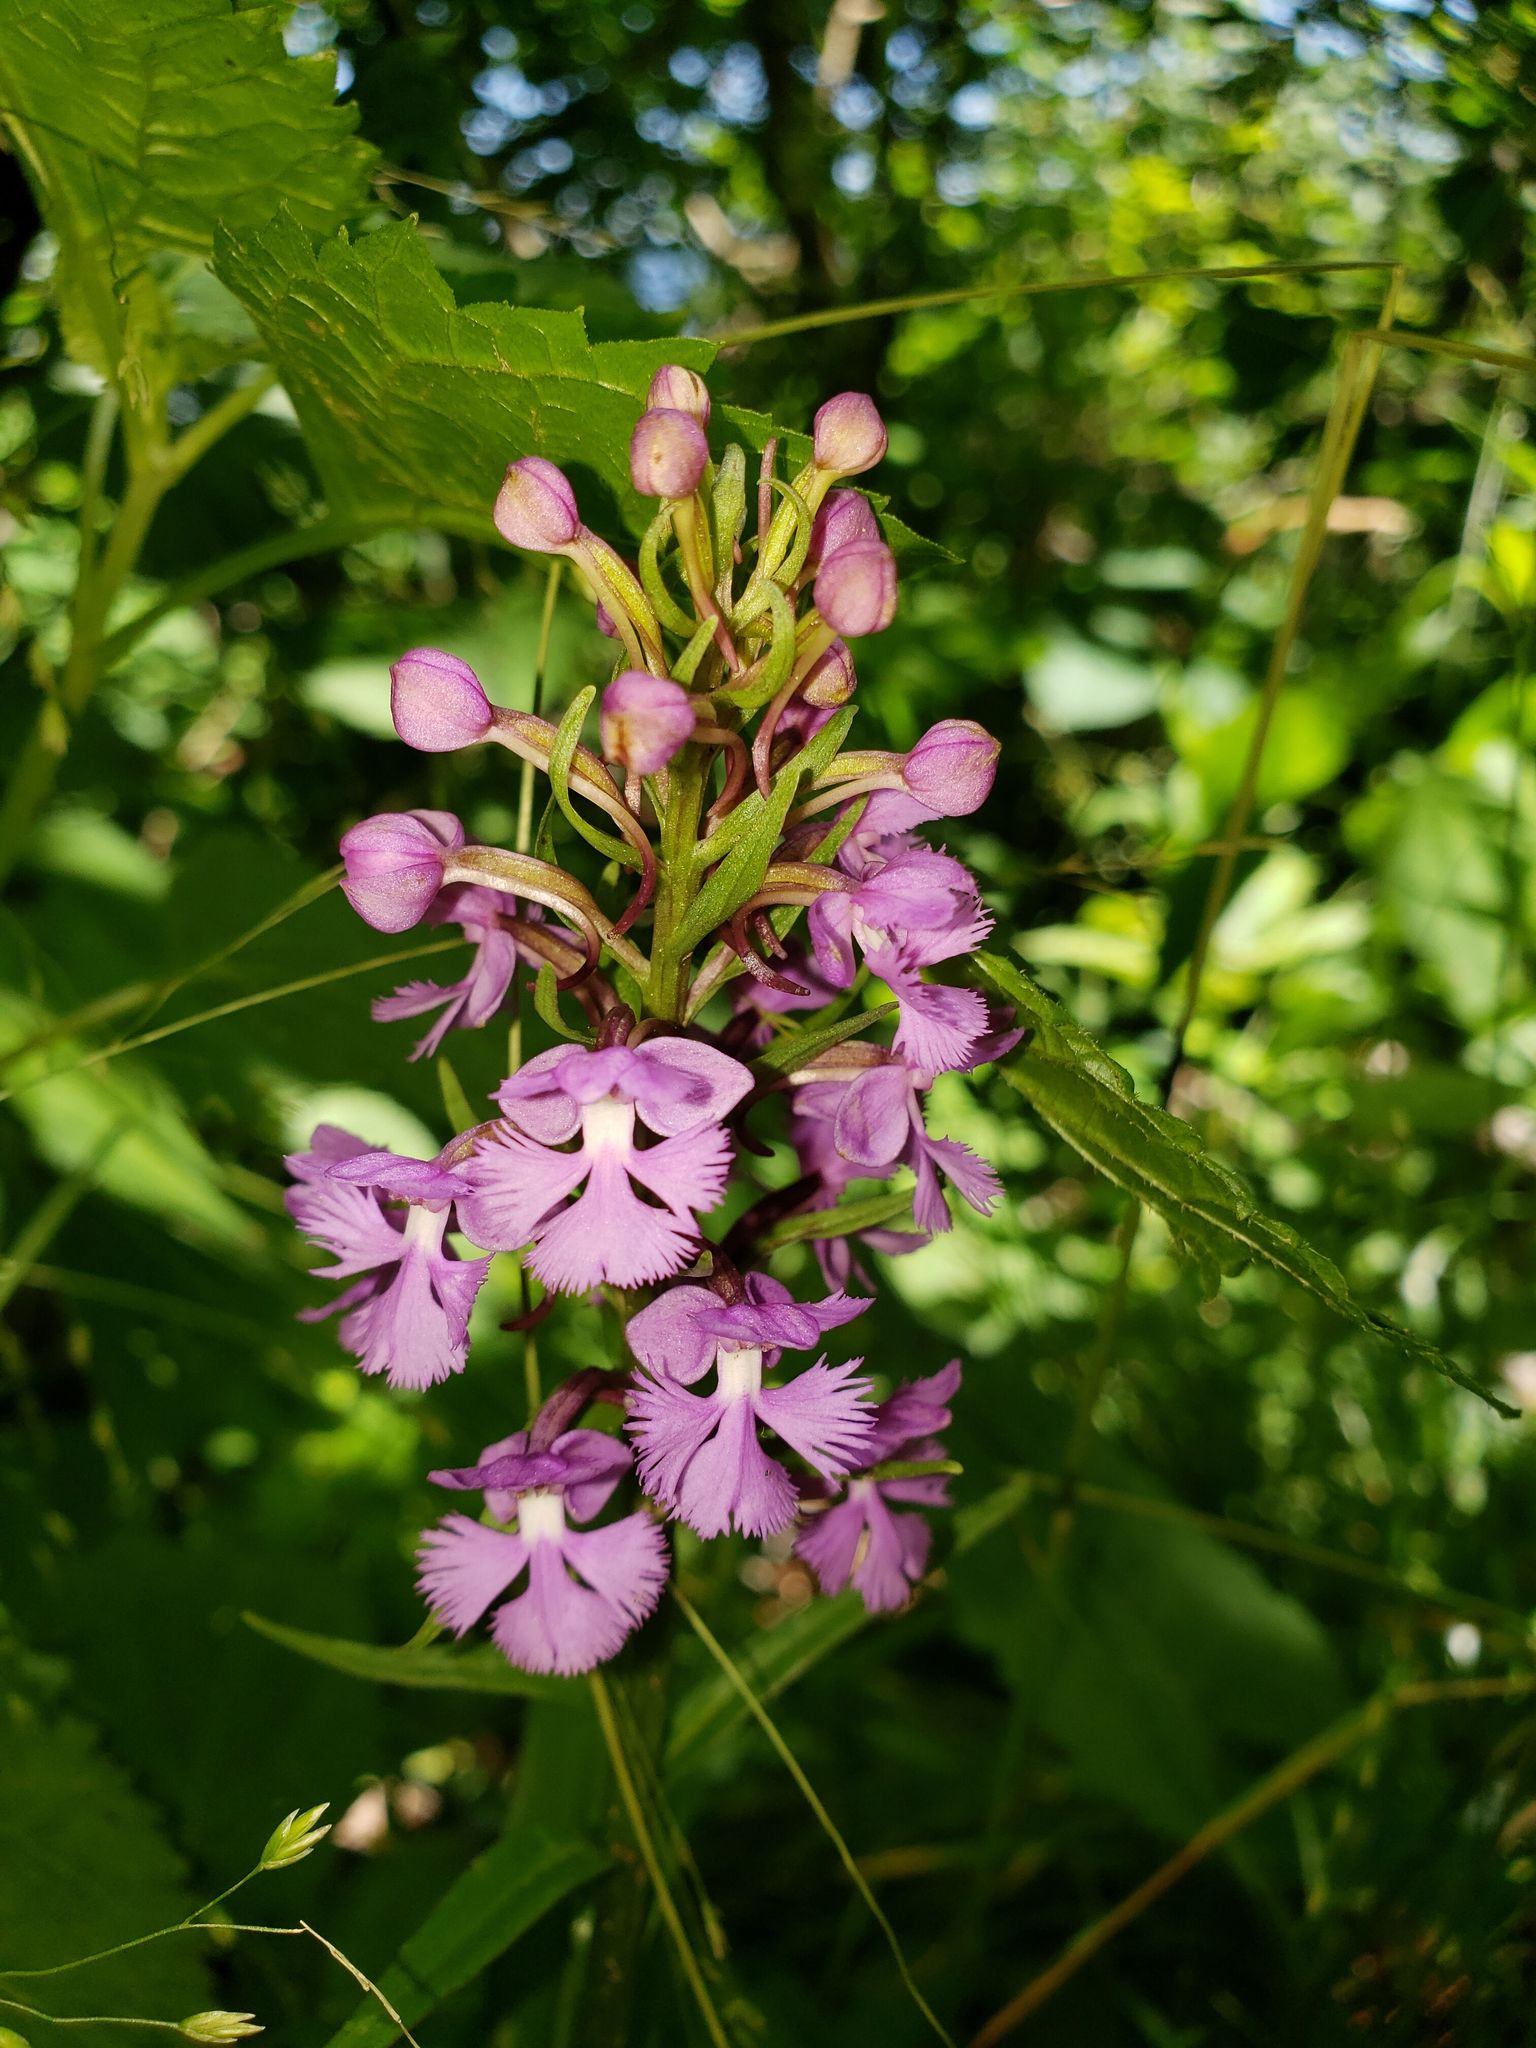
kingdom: Plantae
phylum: Tracheophyta
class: Liliopsida
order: Asparagales
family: Orchidaceae
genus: Platanthera
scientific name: Platanthera psycodes
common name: Lesser purple fringed orchid
